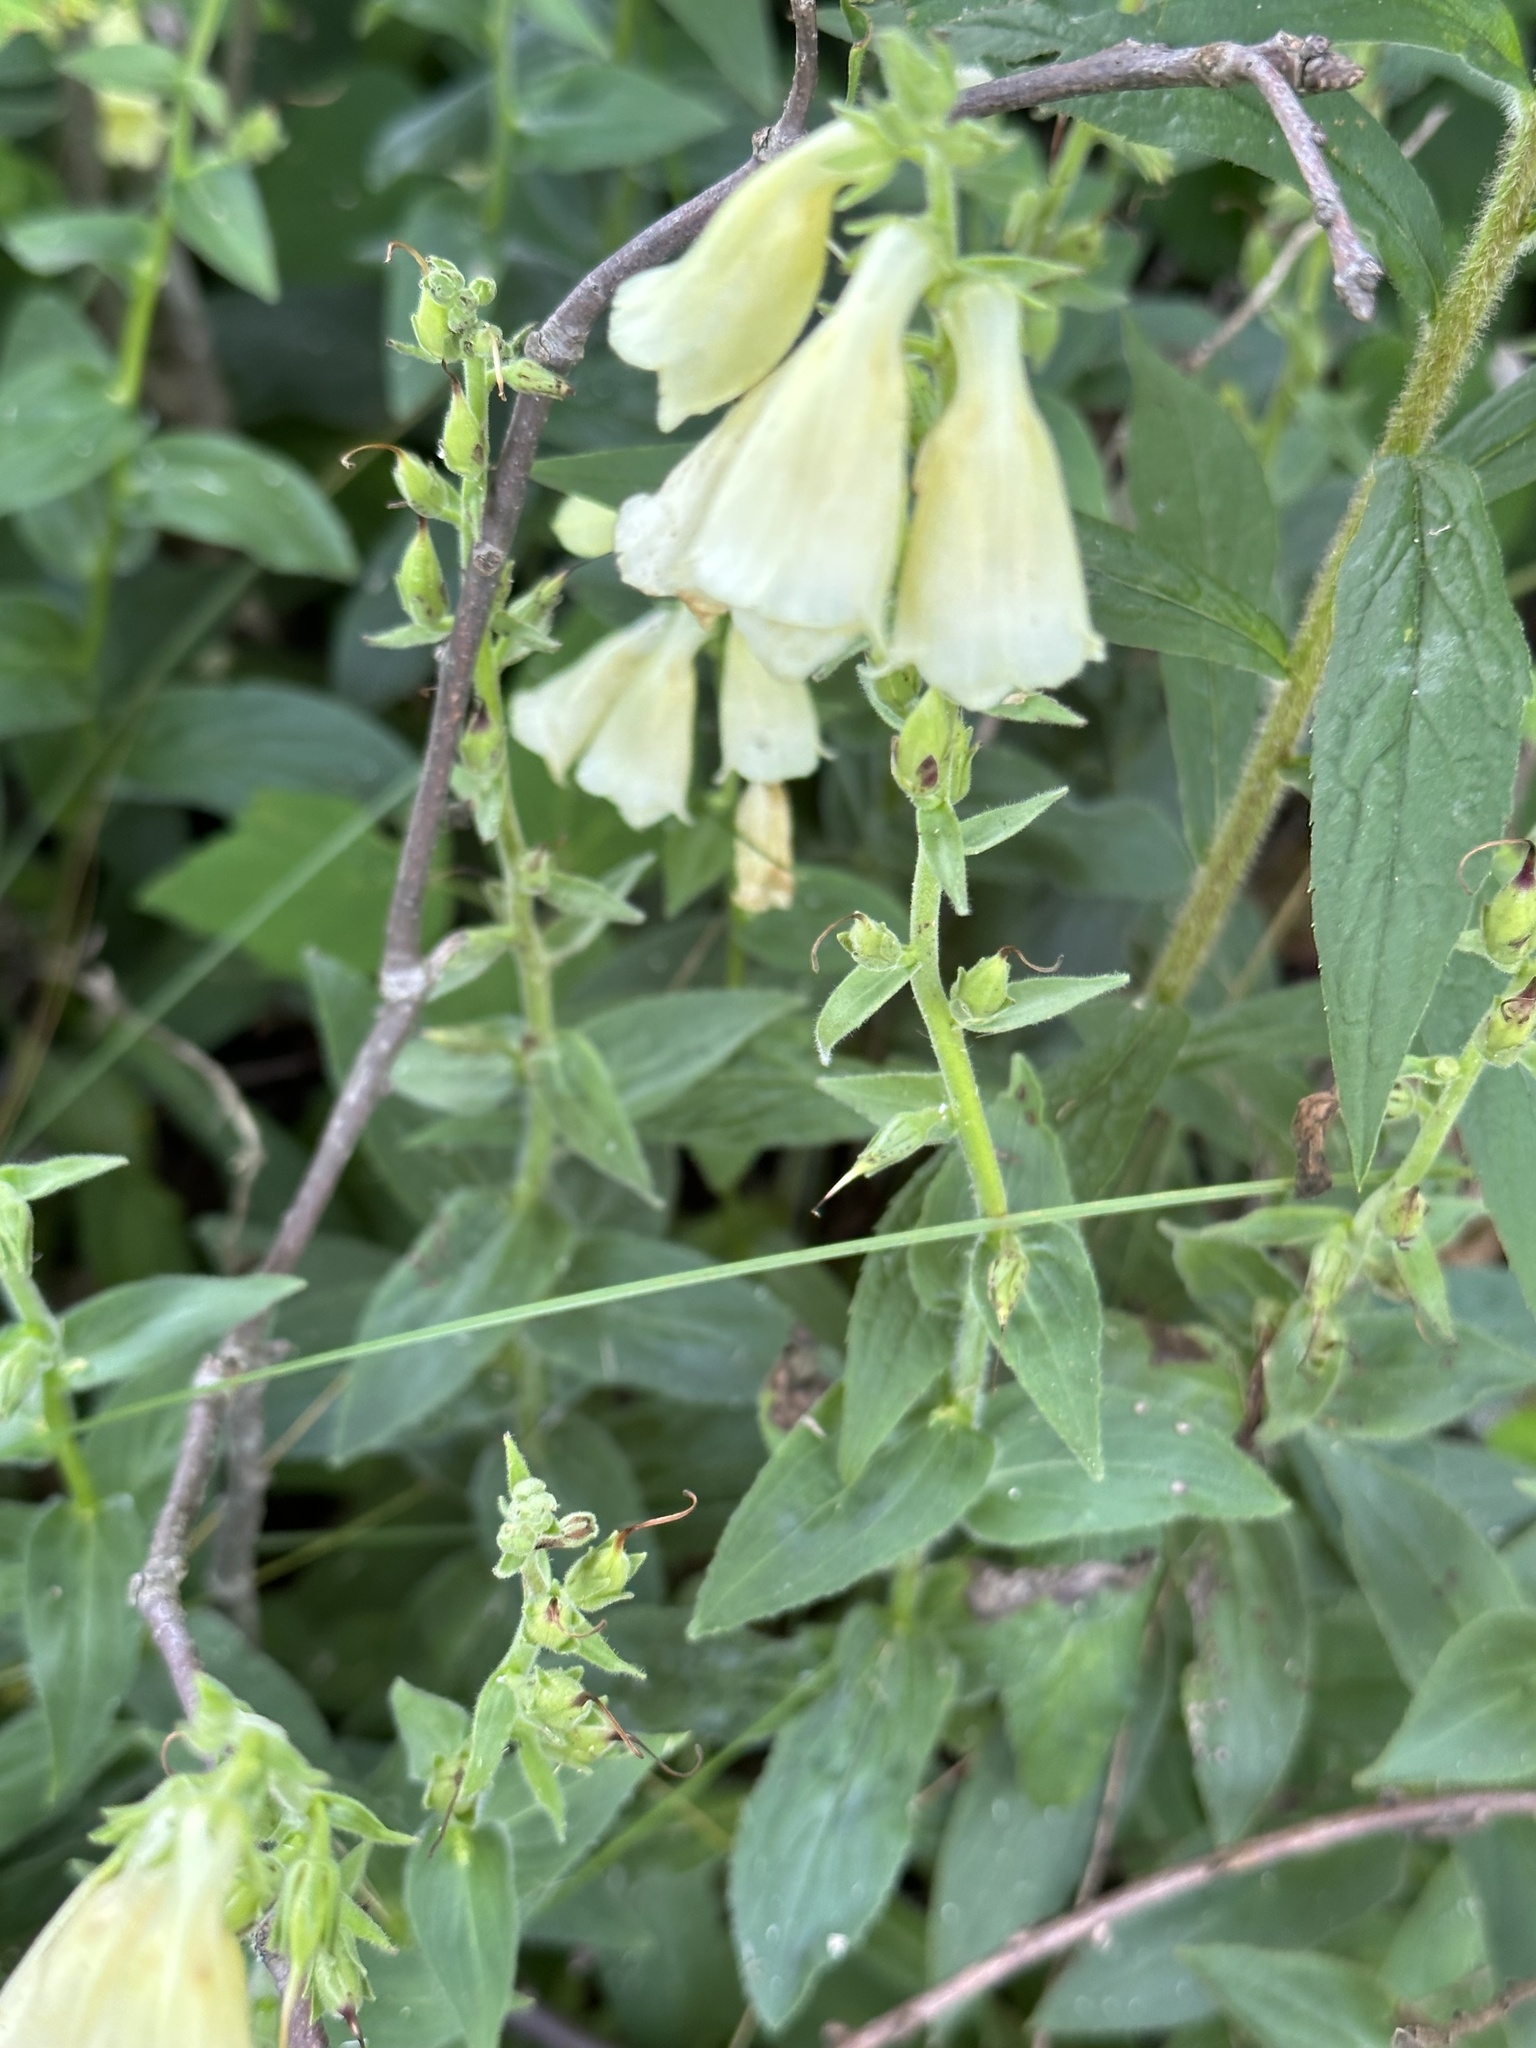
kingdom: Plantae
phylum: Tracheophyta
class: Magnoliopsida
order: Lamiales
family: Plantaginaceae
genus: Digitalis
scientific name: Digitalis grandiflora
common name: Yellow foxglove
